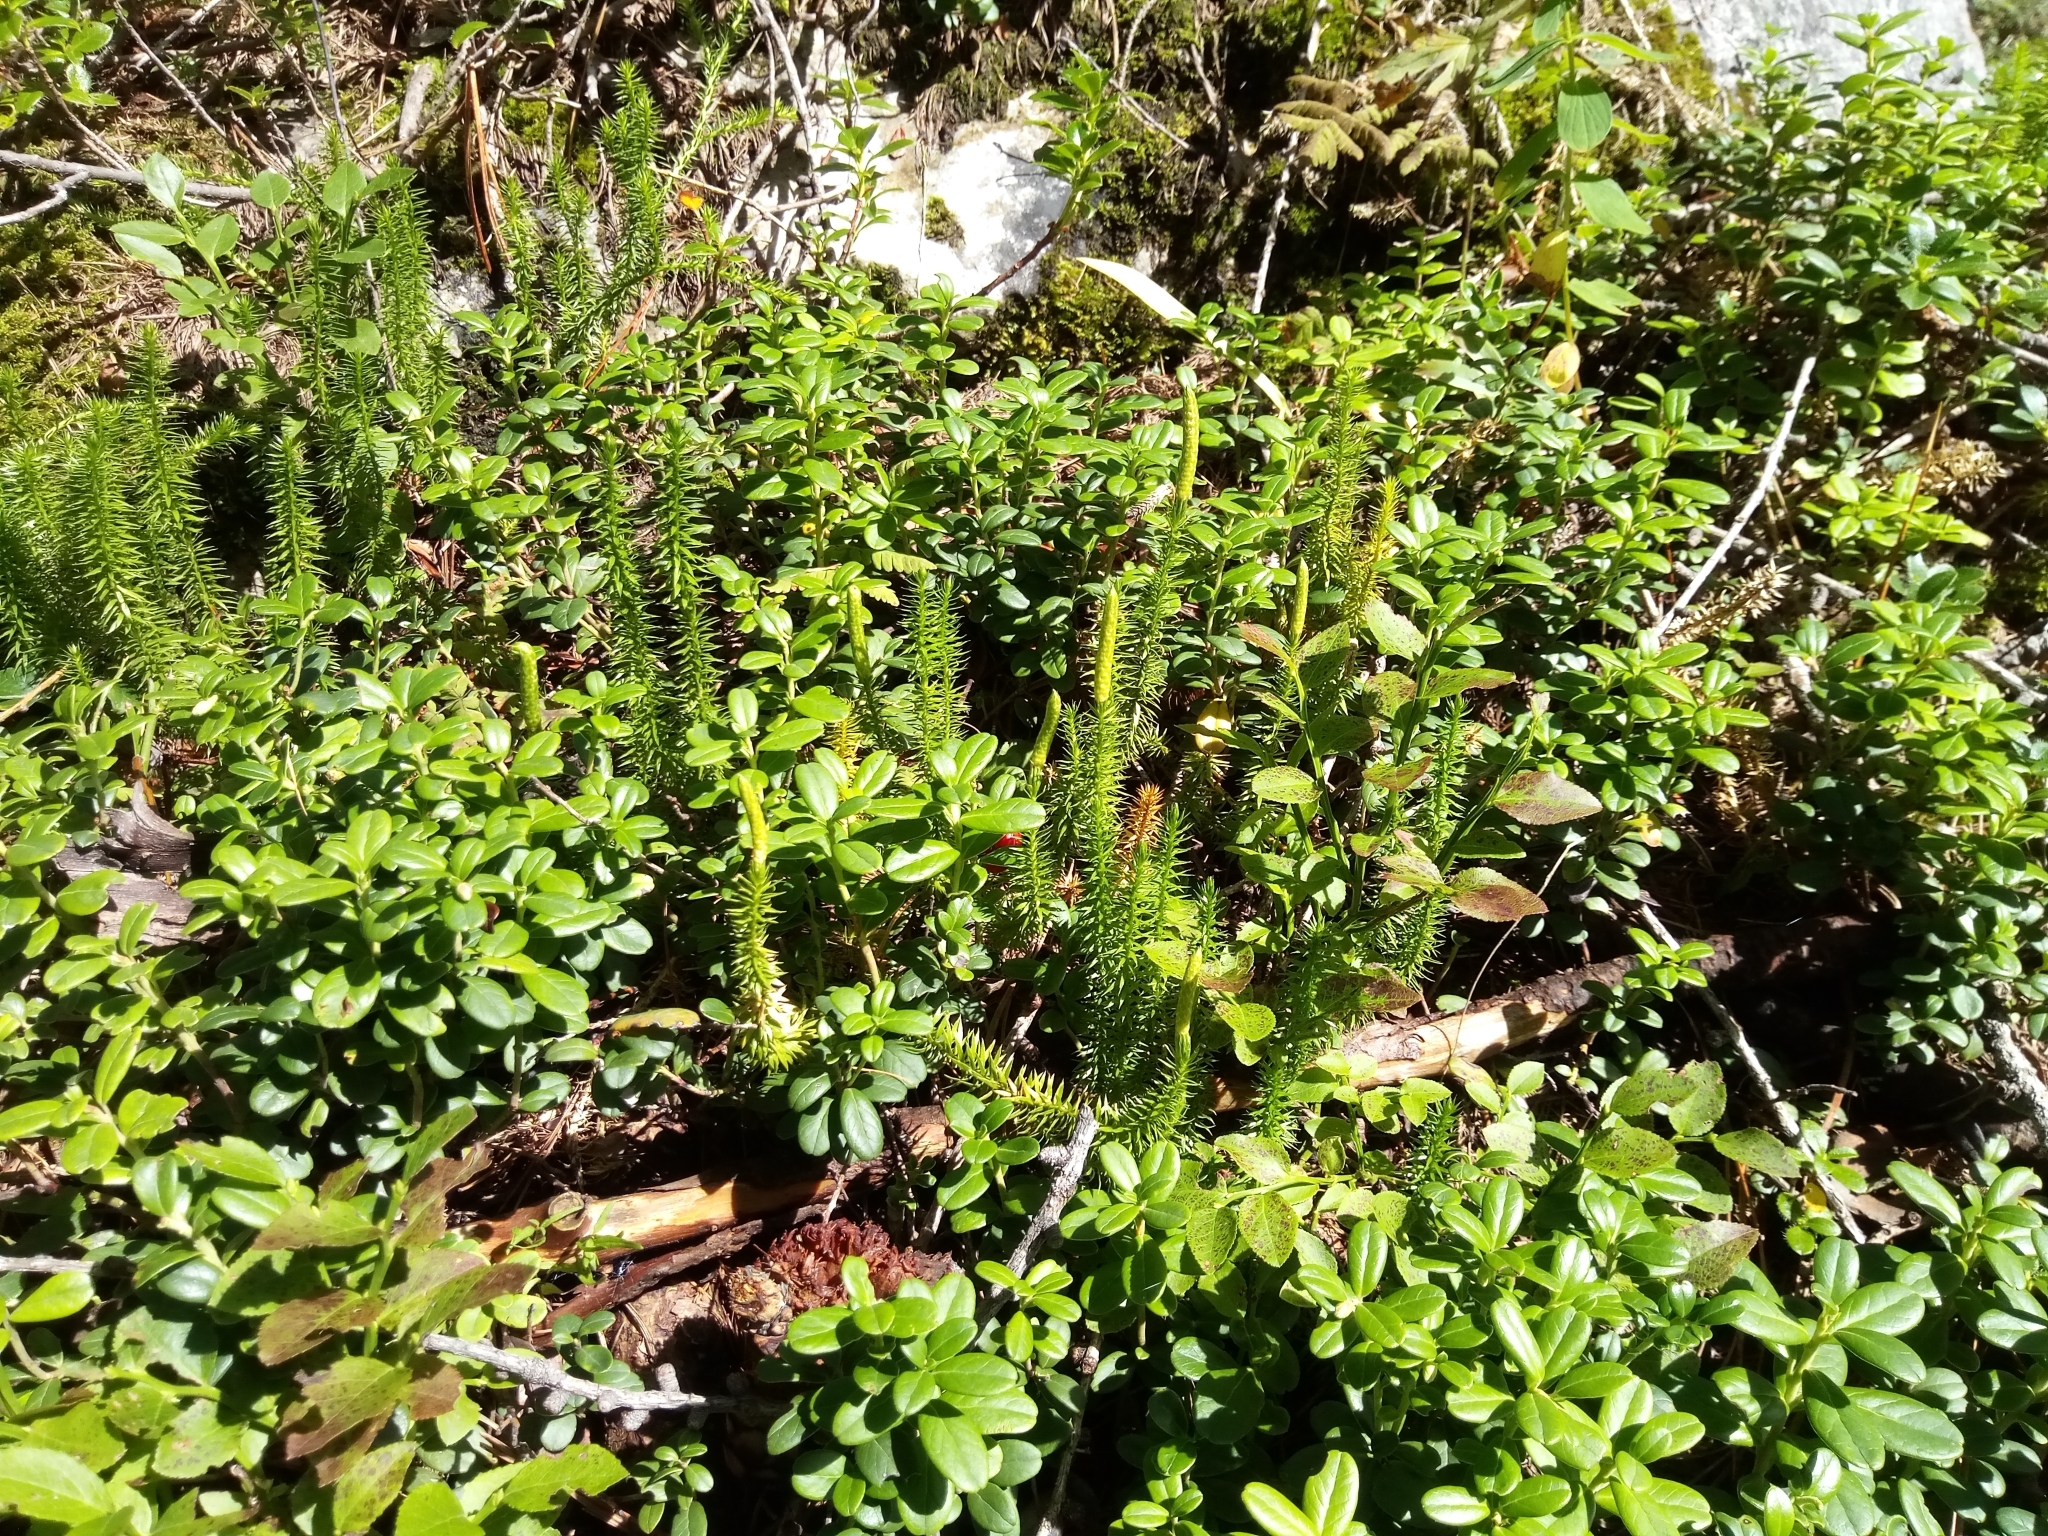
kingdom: Plantae
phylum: Tracheophyta
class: Lycopodiopsida
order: Lycopodiales
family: Lycopodiaceae
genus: Spinulum
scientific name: Spinulum annotinum
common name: Interrupted club-moss
